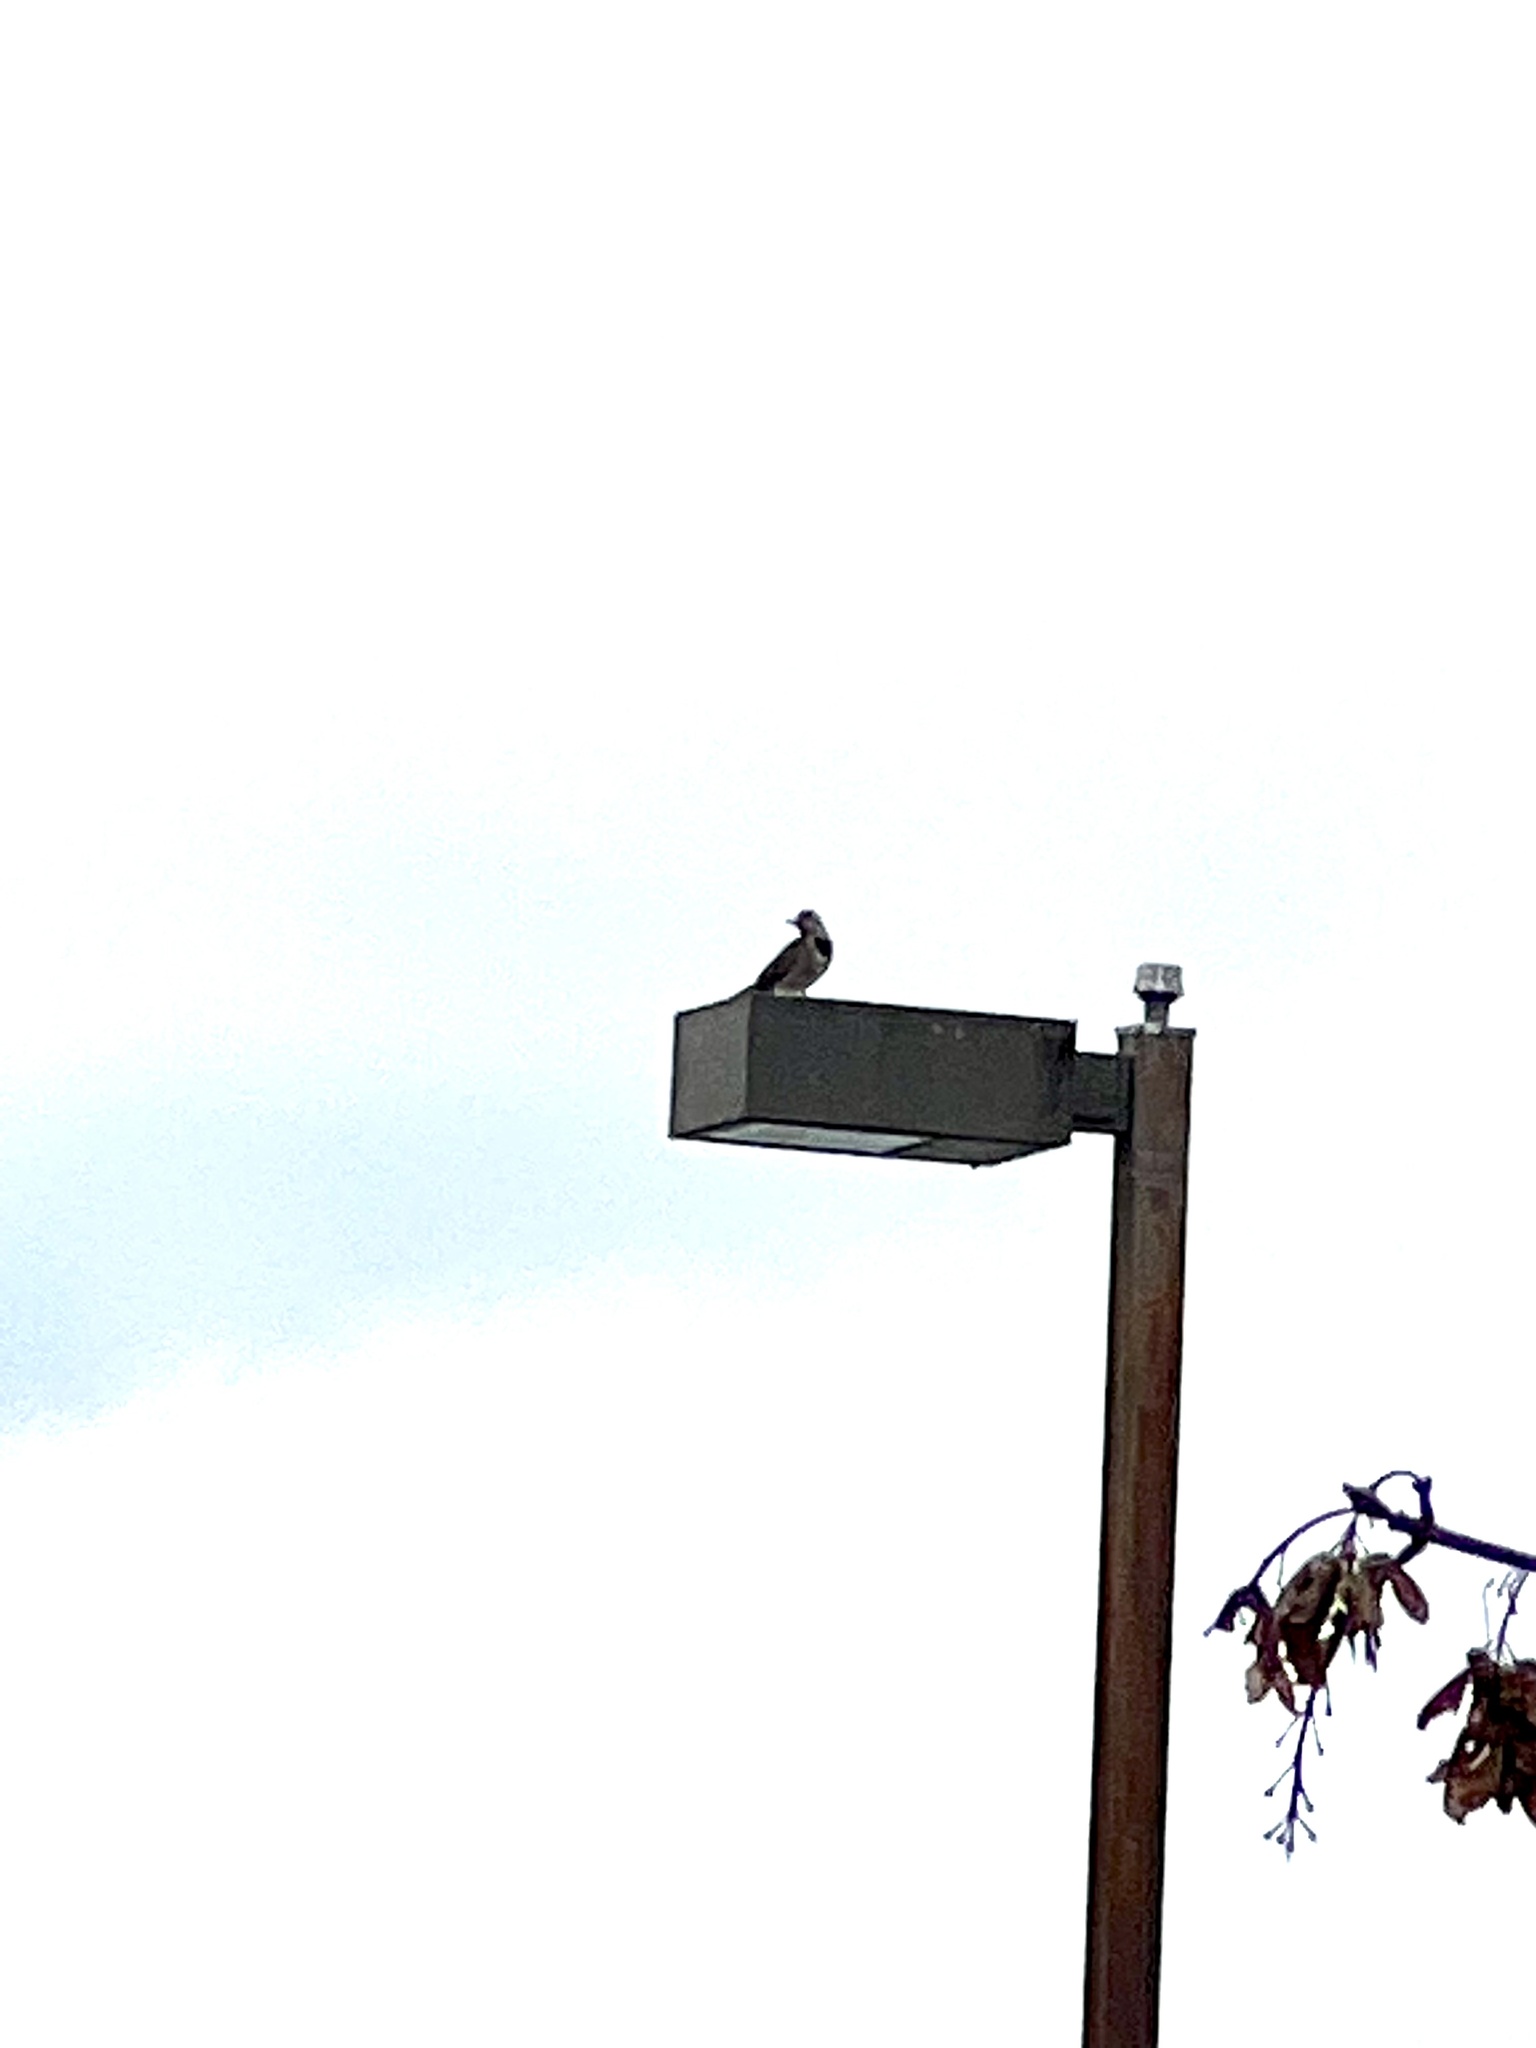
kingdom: Animalia
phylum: Chordata
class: Aves
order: Piciformes
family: Picidae
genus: Colaptes
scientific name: Colaptes auratus
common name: Northern flicker
